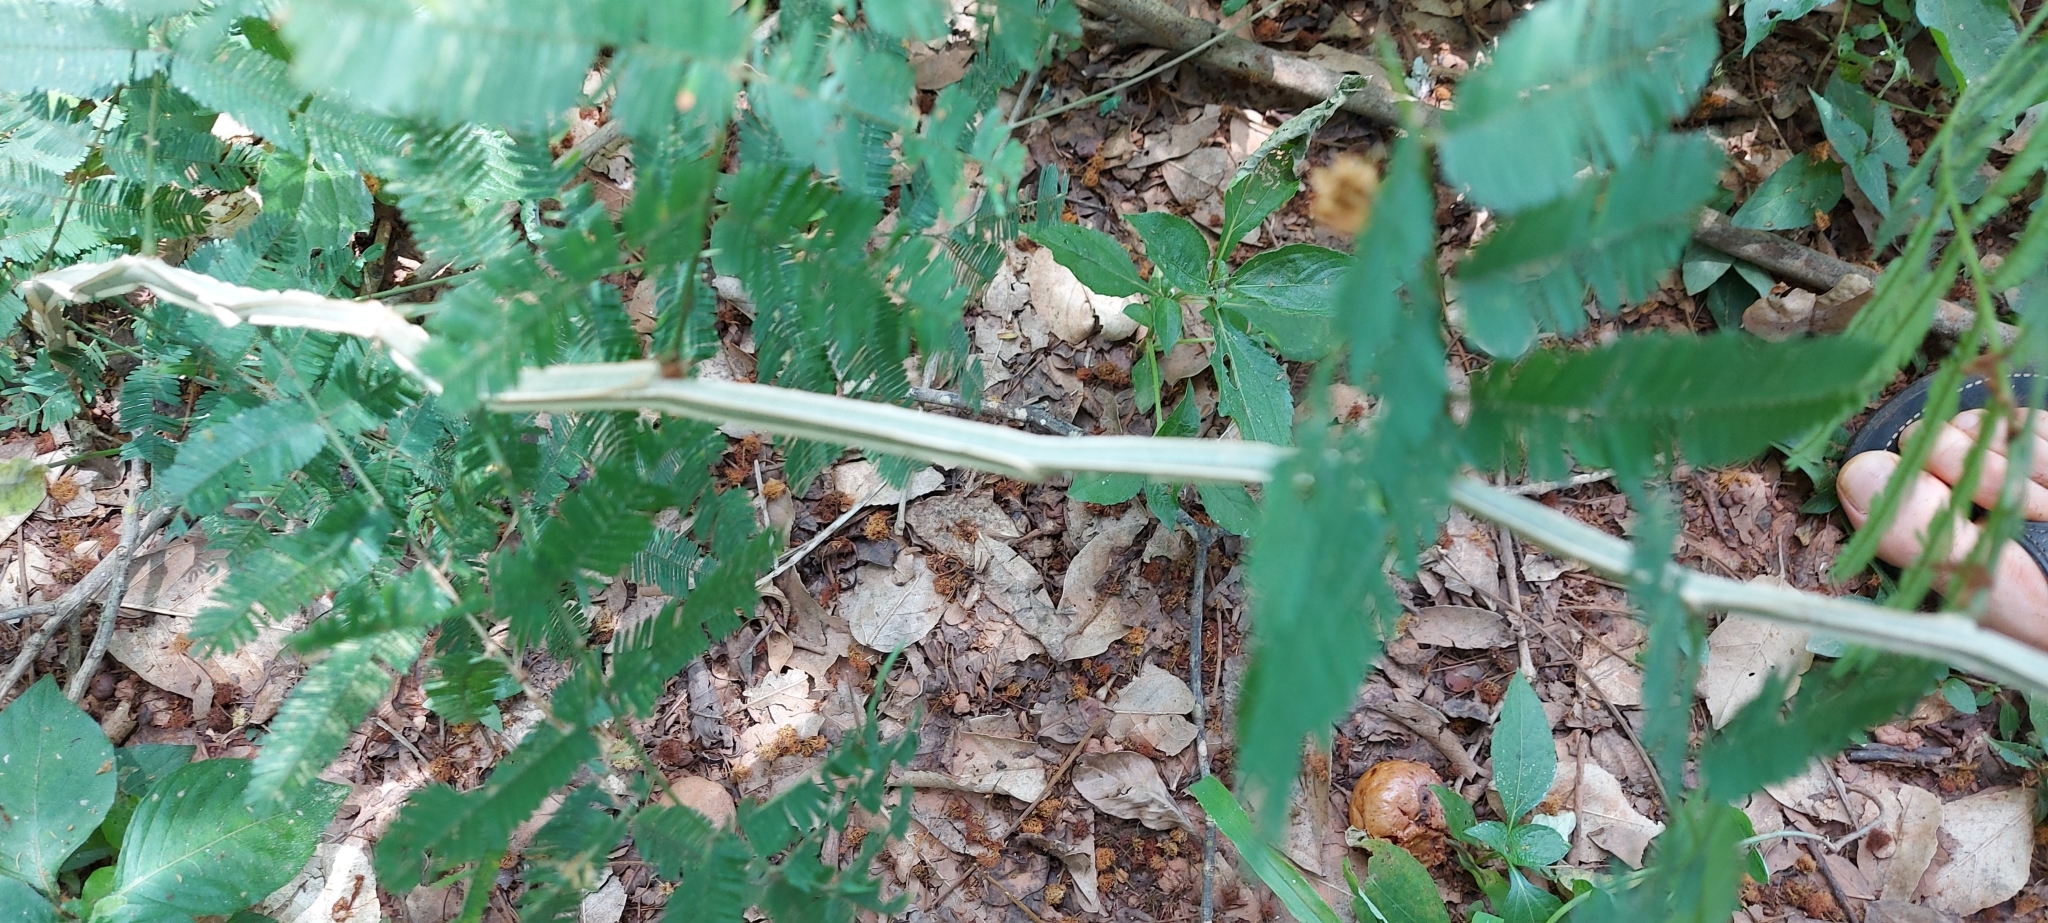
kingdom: Plantae
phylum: Tracheophyta
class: Magnoliopsida
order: Fabales
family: Fabaceae
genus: Piptadenia
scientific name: Piptadenia gonoacantha
